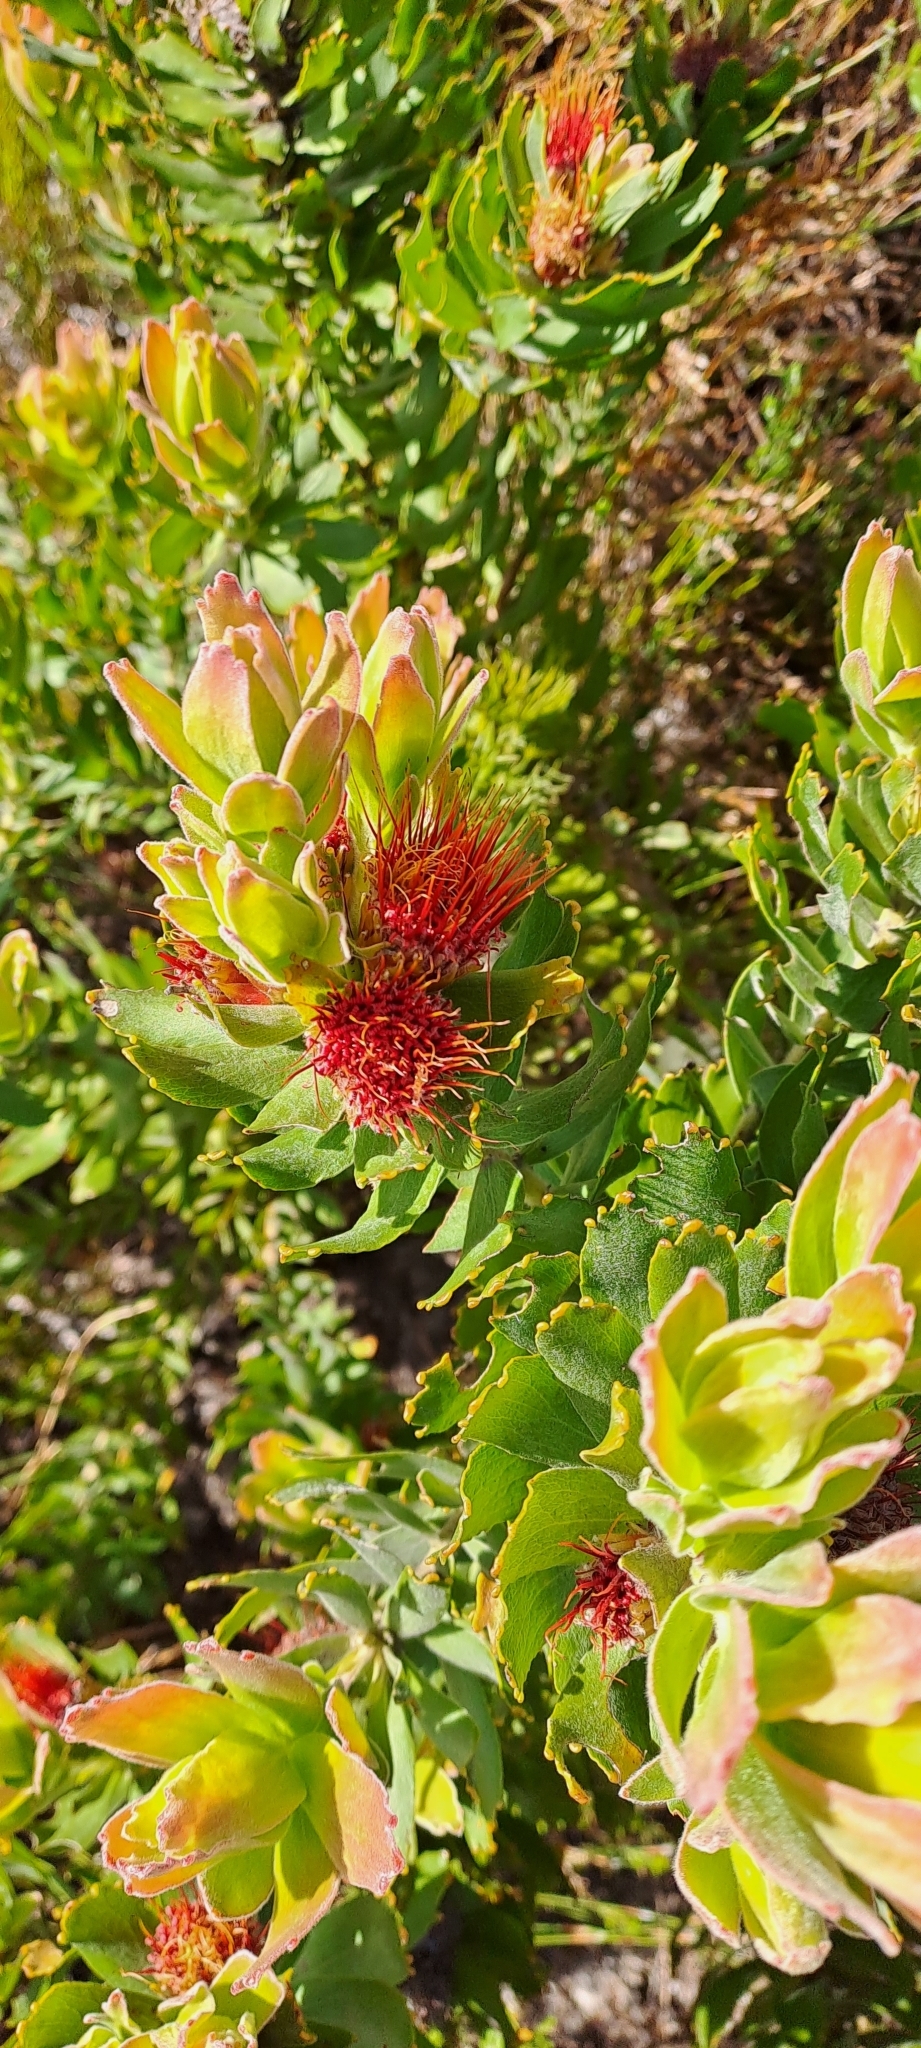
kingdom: Plantae
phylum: Tracheophyta
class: Magnoliopsida
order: Proteales
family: Proteaceae
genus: Leucospermum
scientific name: Leucospermum oleifolium
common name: Matches
